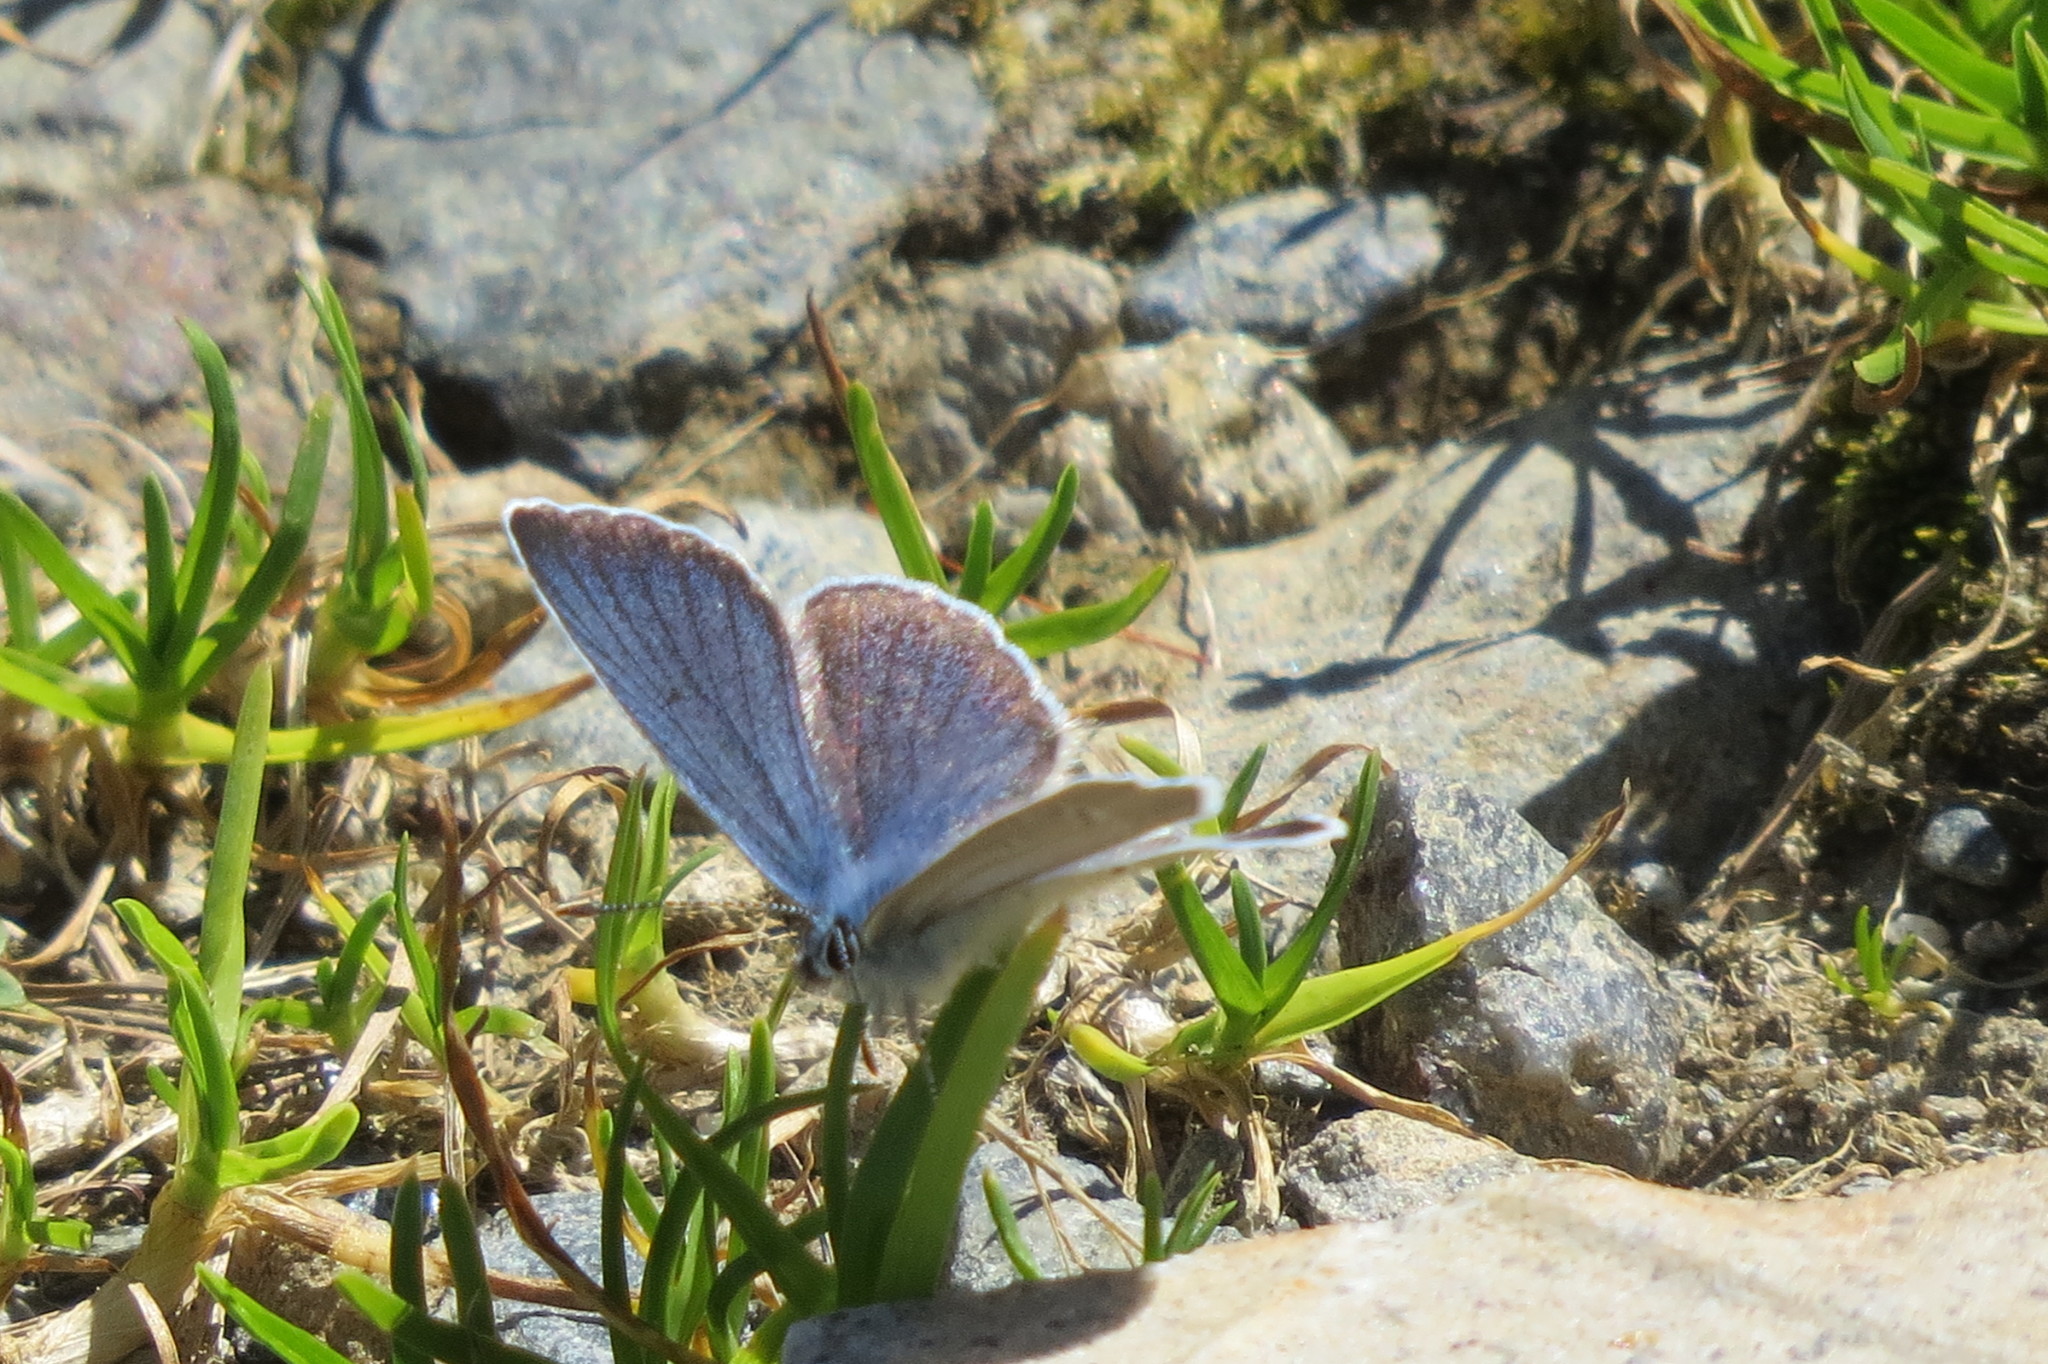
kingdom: Animalia
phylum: Arthropoda
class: Insecta
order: Lepidoptera
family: Lycaenidae
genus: Cyaniris
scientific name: Cyaniris semiargus
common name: Mazarine blue
